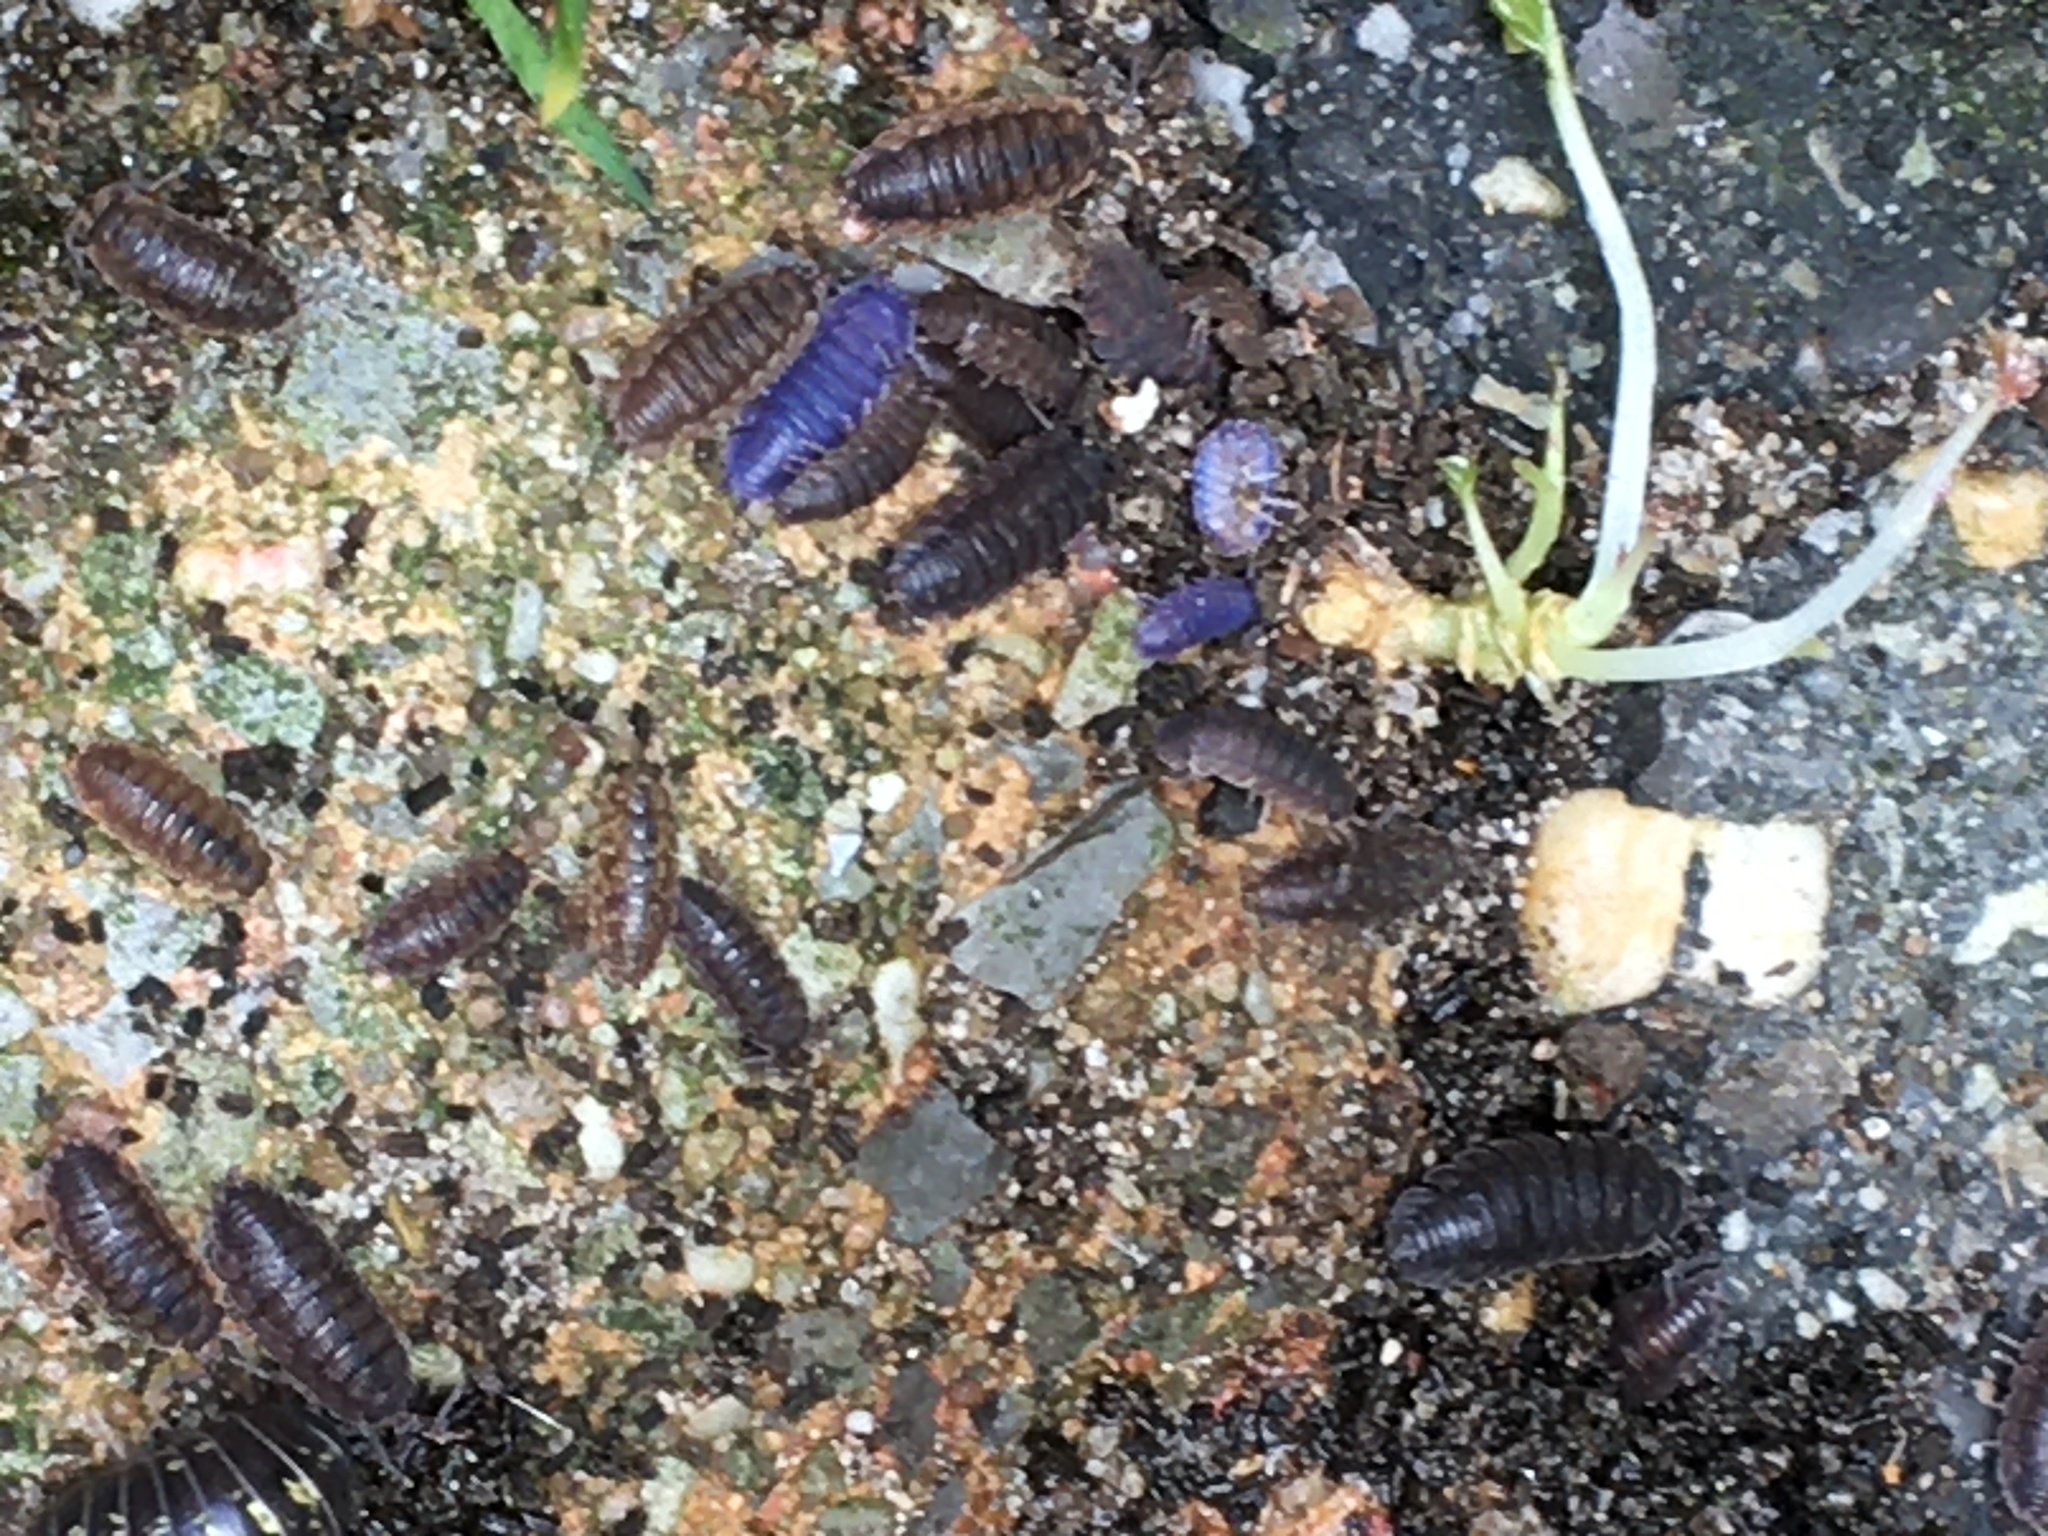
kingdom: Viruses
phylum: Nucleocytoviricota
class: Megaviricetes
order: Pimascovirales
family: Iridoviridae
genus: Iridovirus
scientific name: Iridovirus Invertebrate iridescent virus 31
